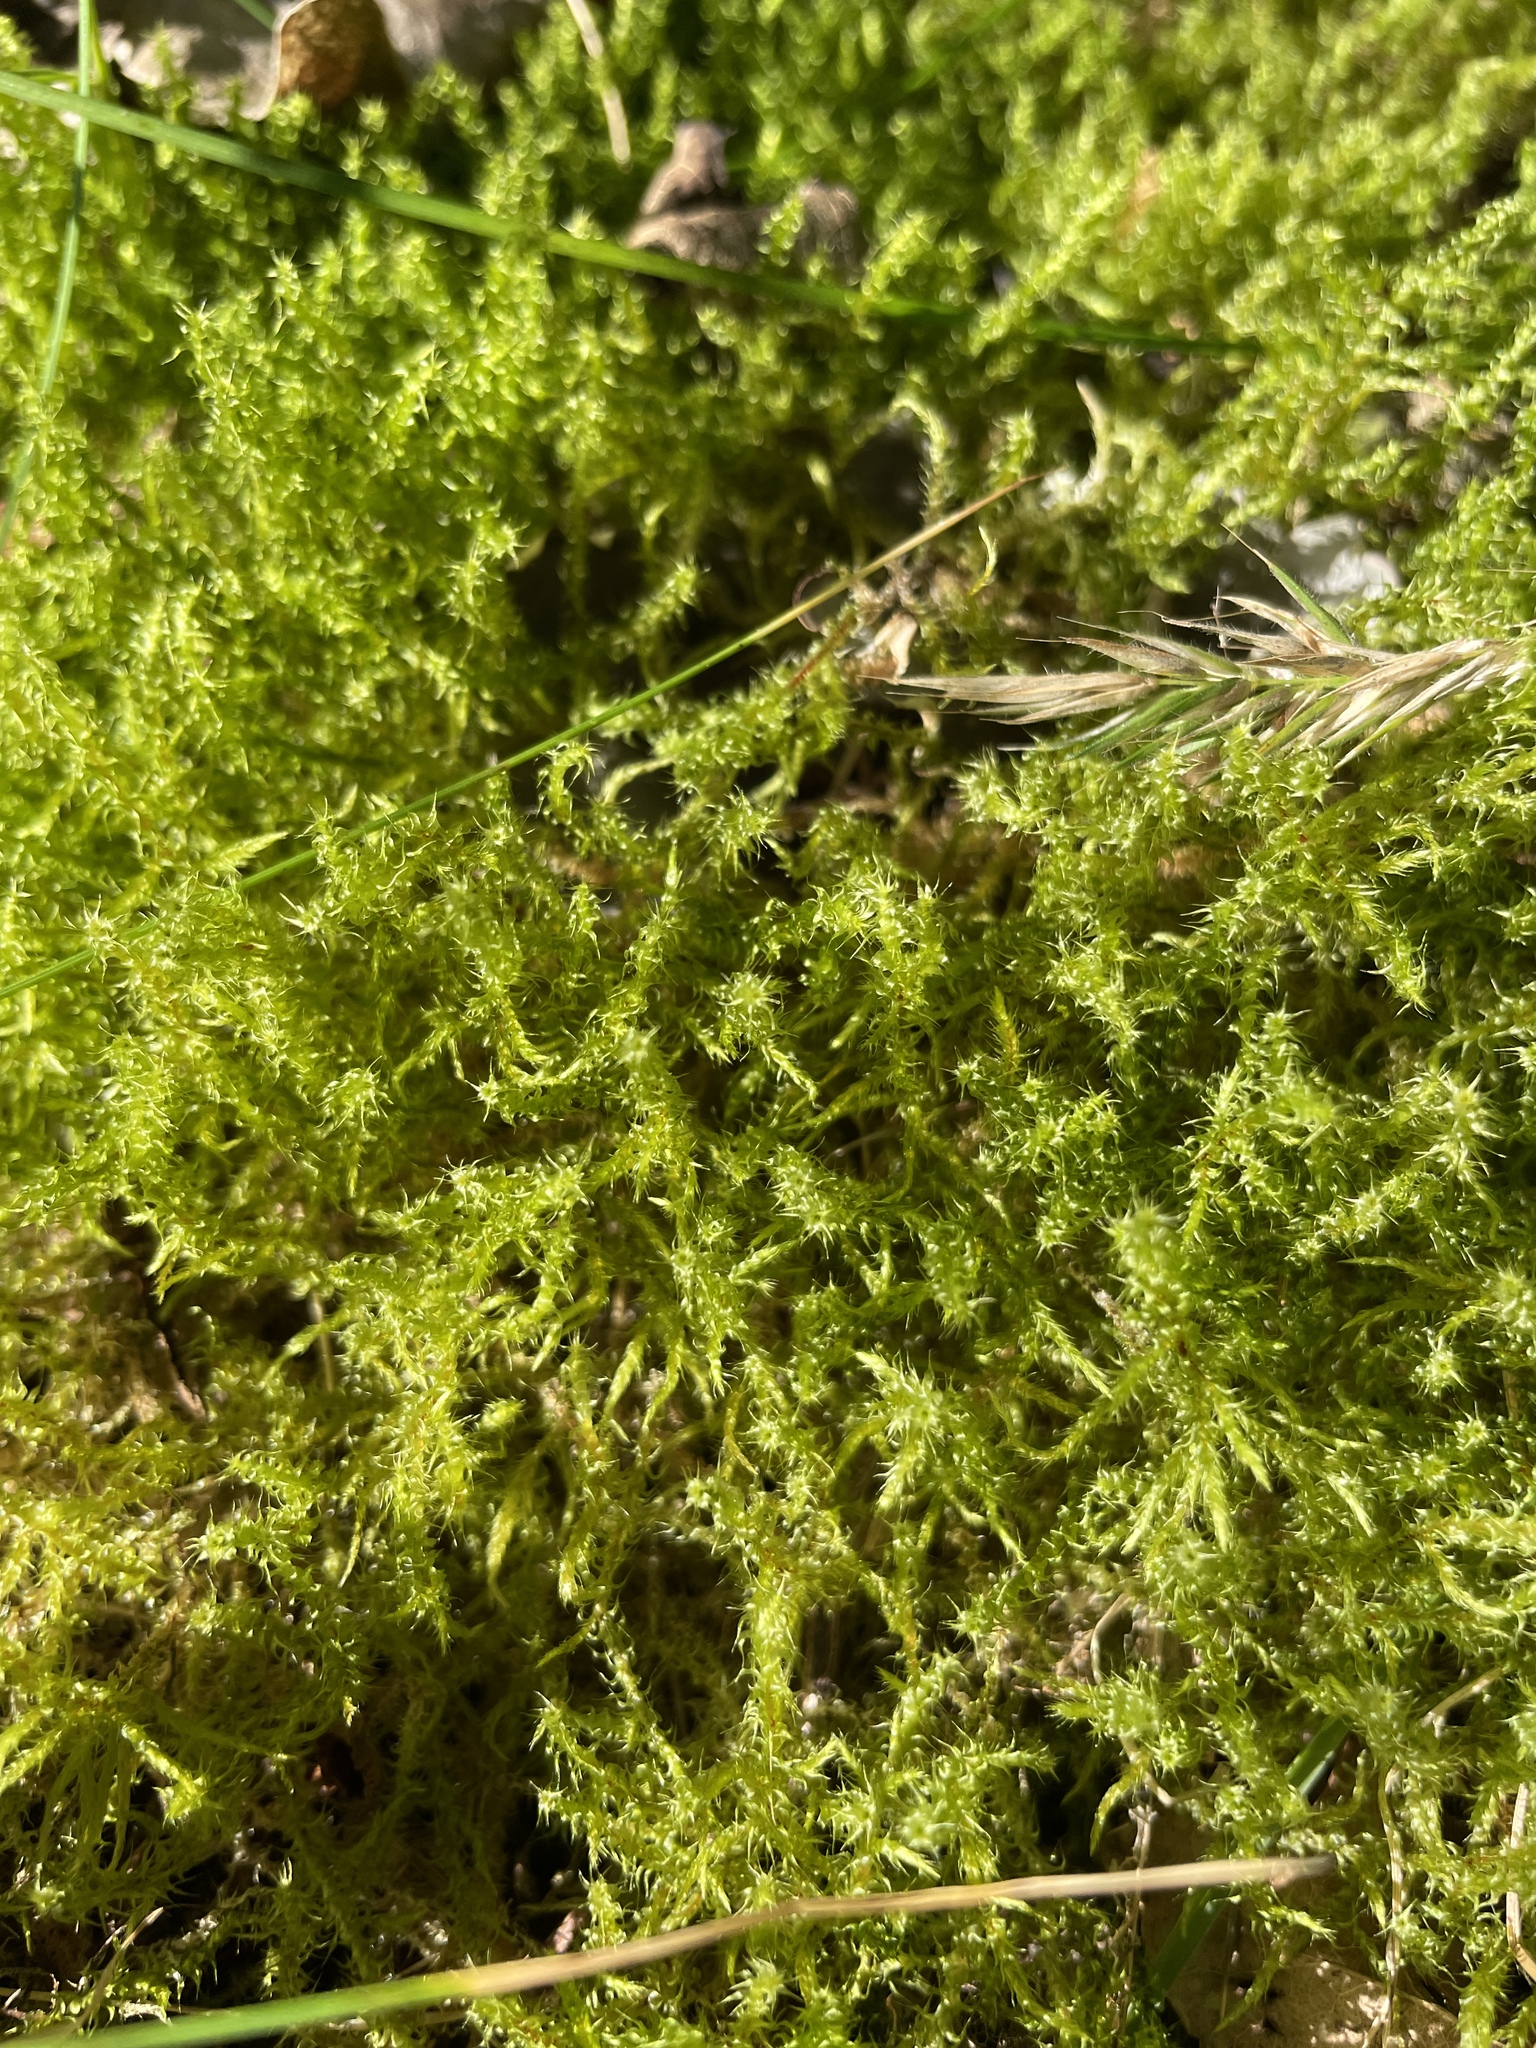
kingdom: Plantae
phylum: Bryophyta
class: Bryopsida
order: Hypnales
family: Hylocomiaceae
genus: Rhytidiadelphus
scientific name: Rhytidiadelphus squarrosus
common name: Springy turf-moss
